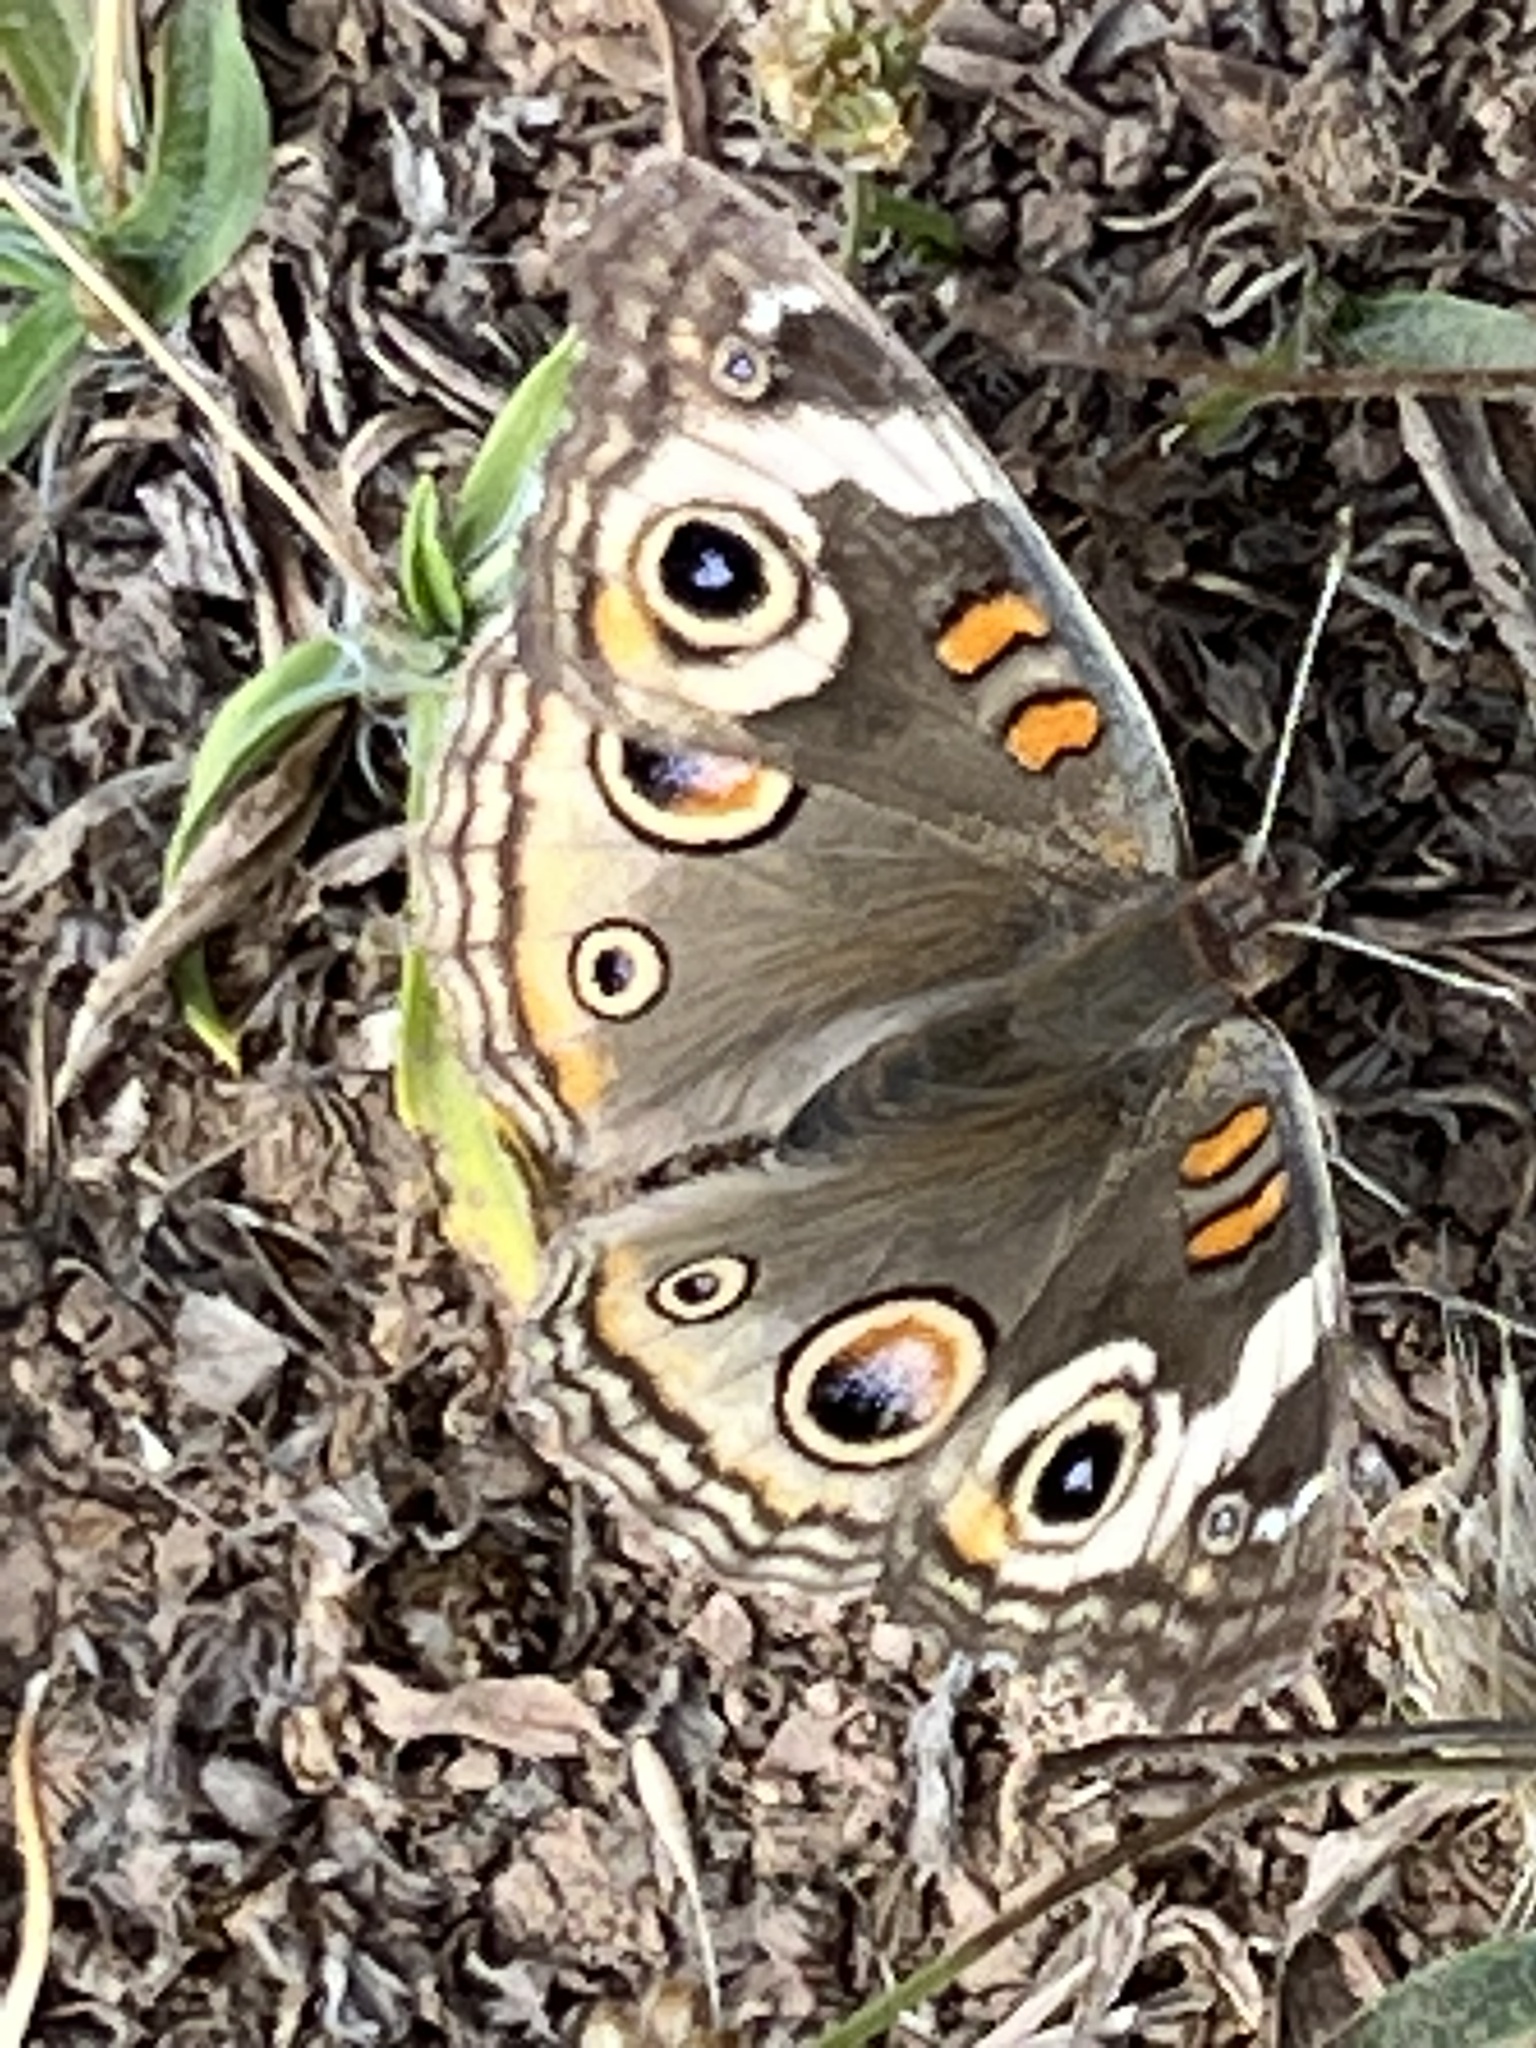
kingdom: Animalia
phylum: Arthropoda
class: Insecta
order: Lepidoptera
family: Nymphalidae
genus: Junonia
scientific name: Junonia grisea
